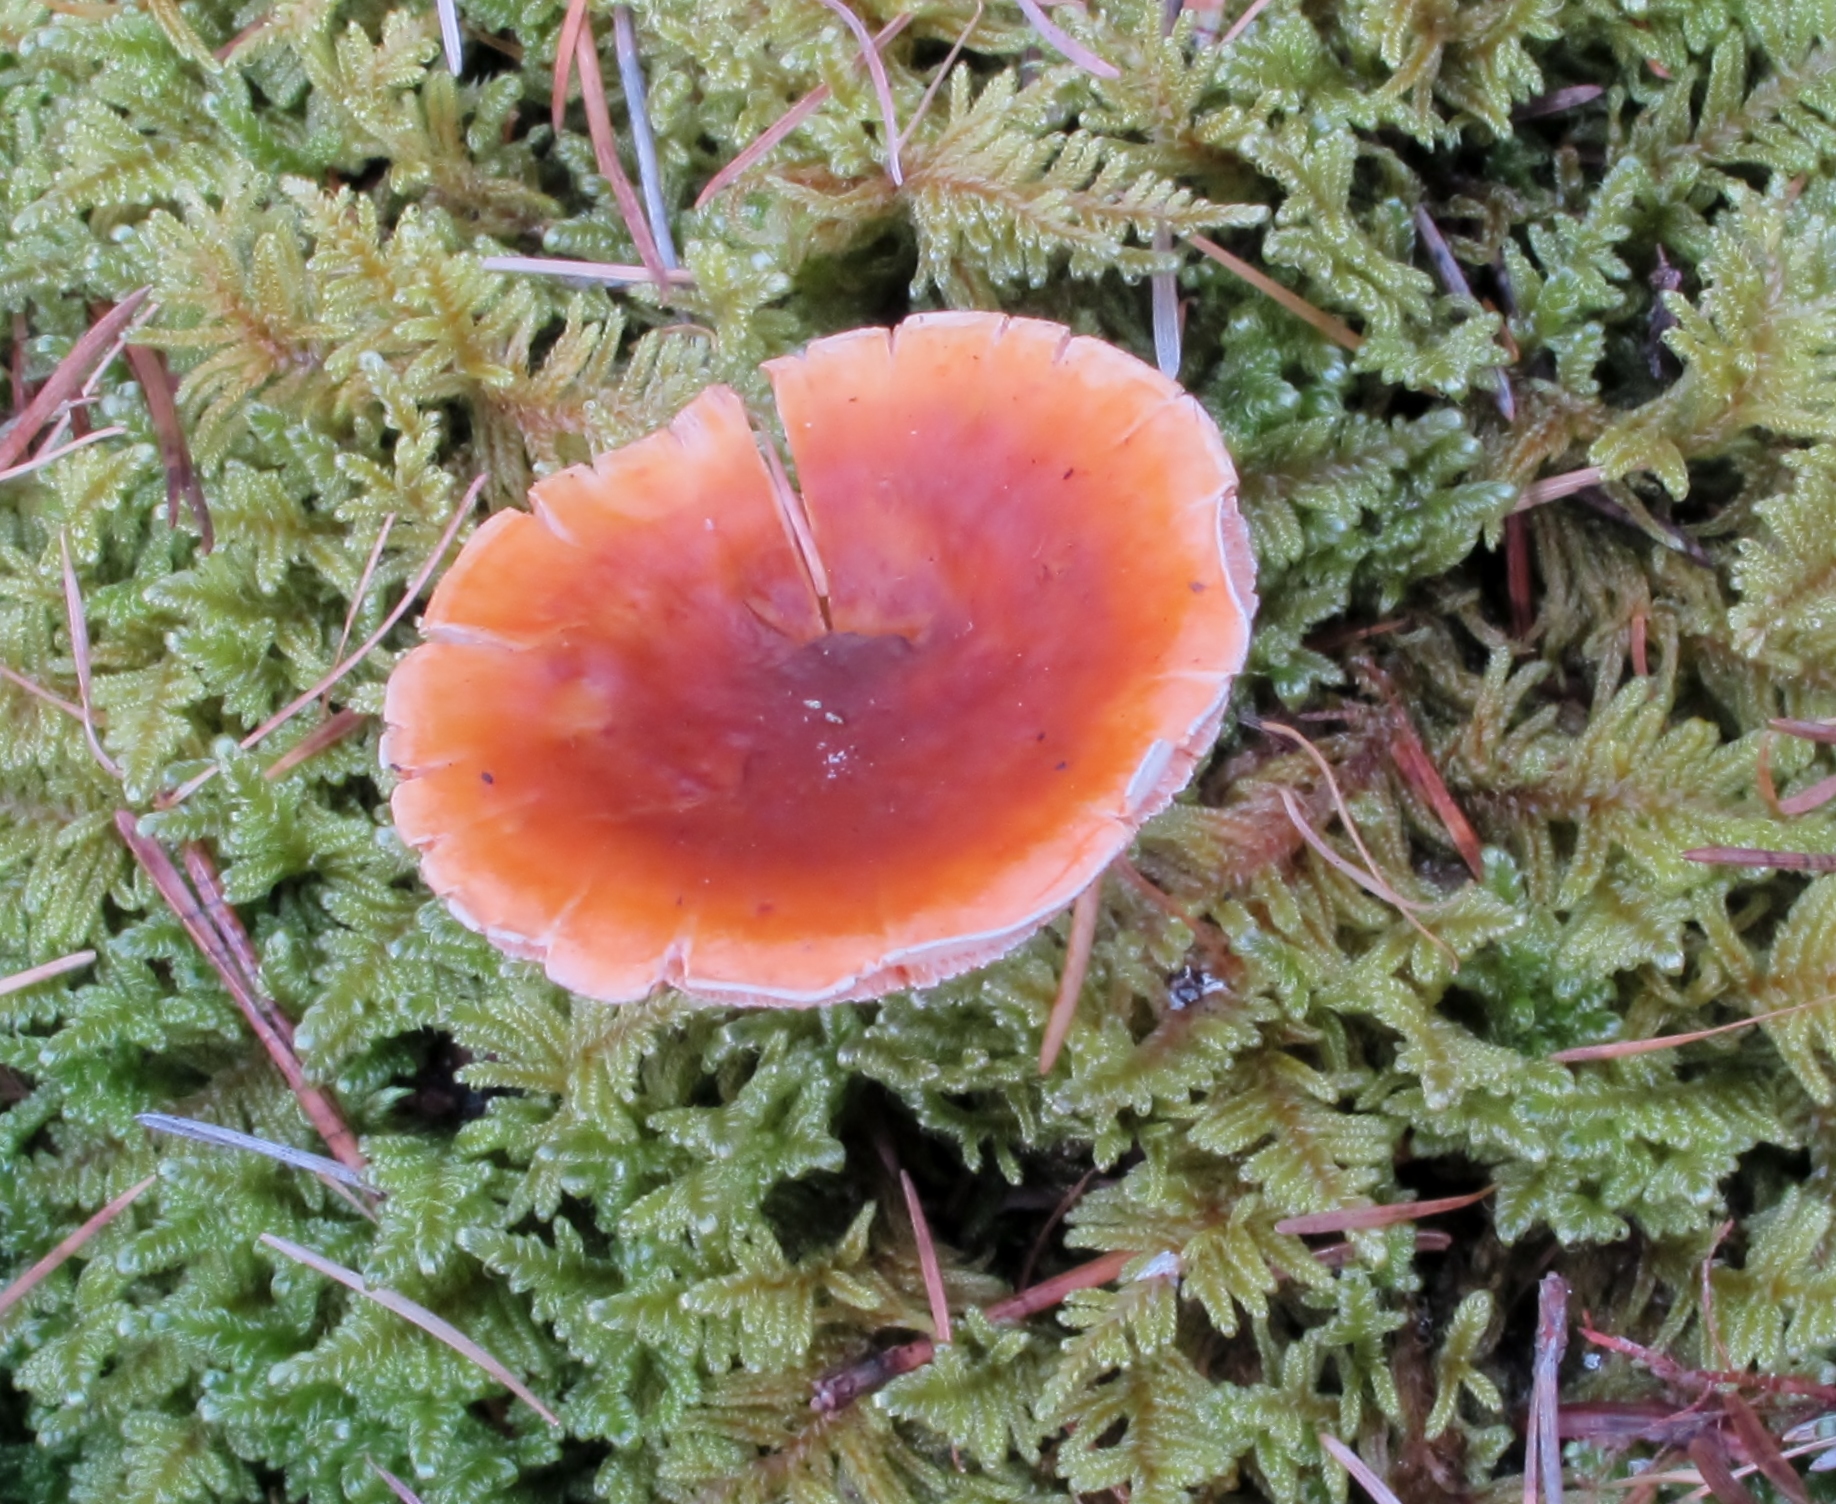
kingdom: Fungi
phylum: Basidiomycota
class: Agaricomycetes
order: Boletales
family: Hygrophoropsidaceae
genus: Hygrophoropsis
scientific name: Hygrophoropsis aurantiaca
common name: False chanterelle
